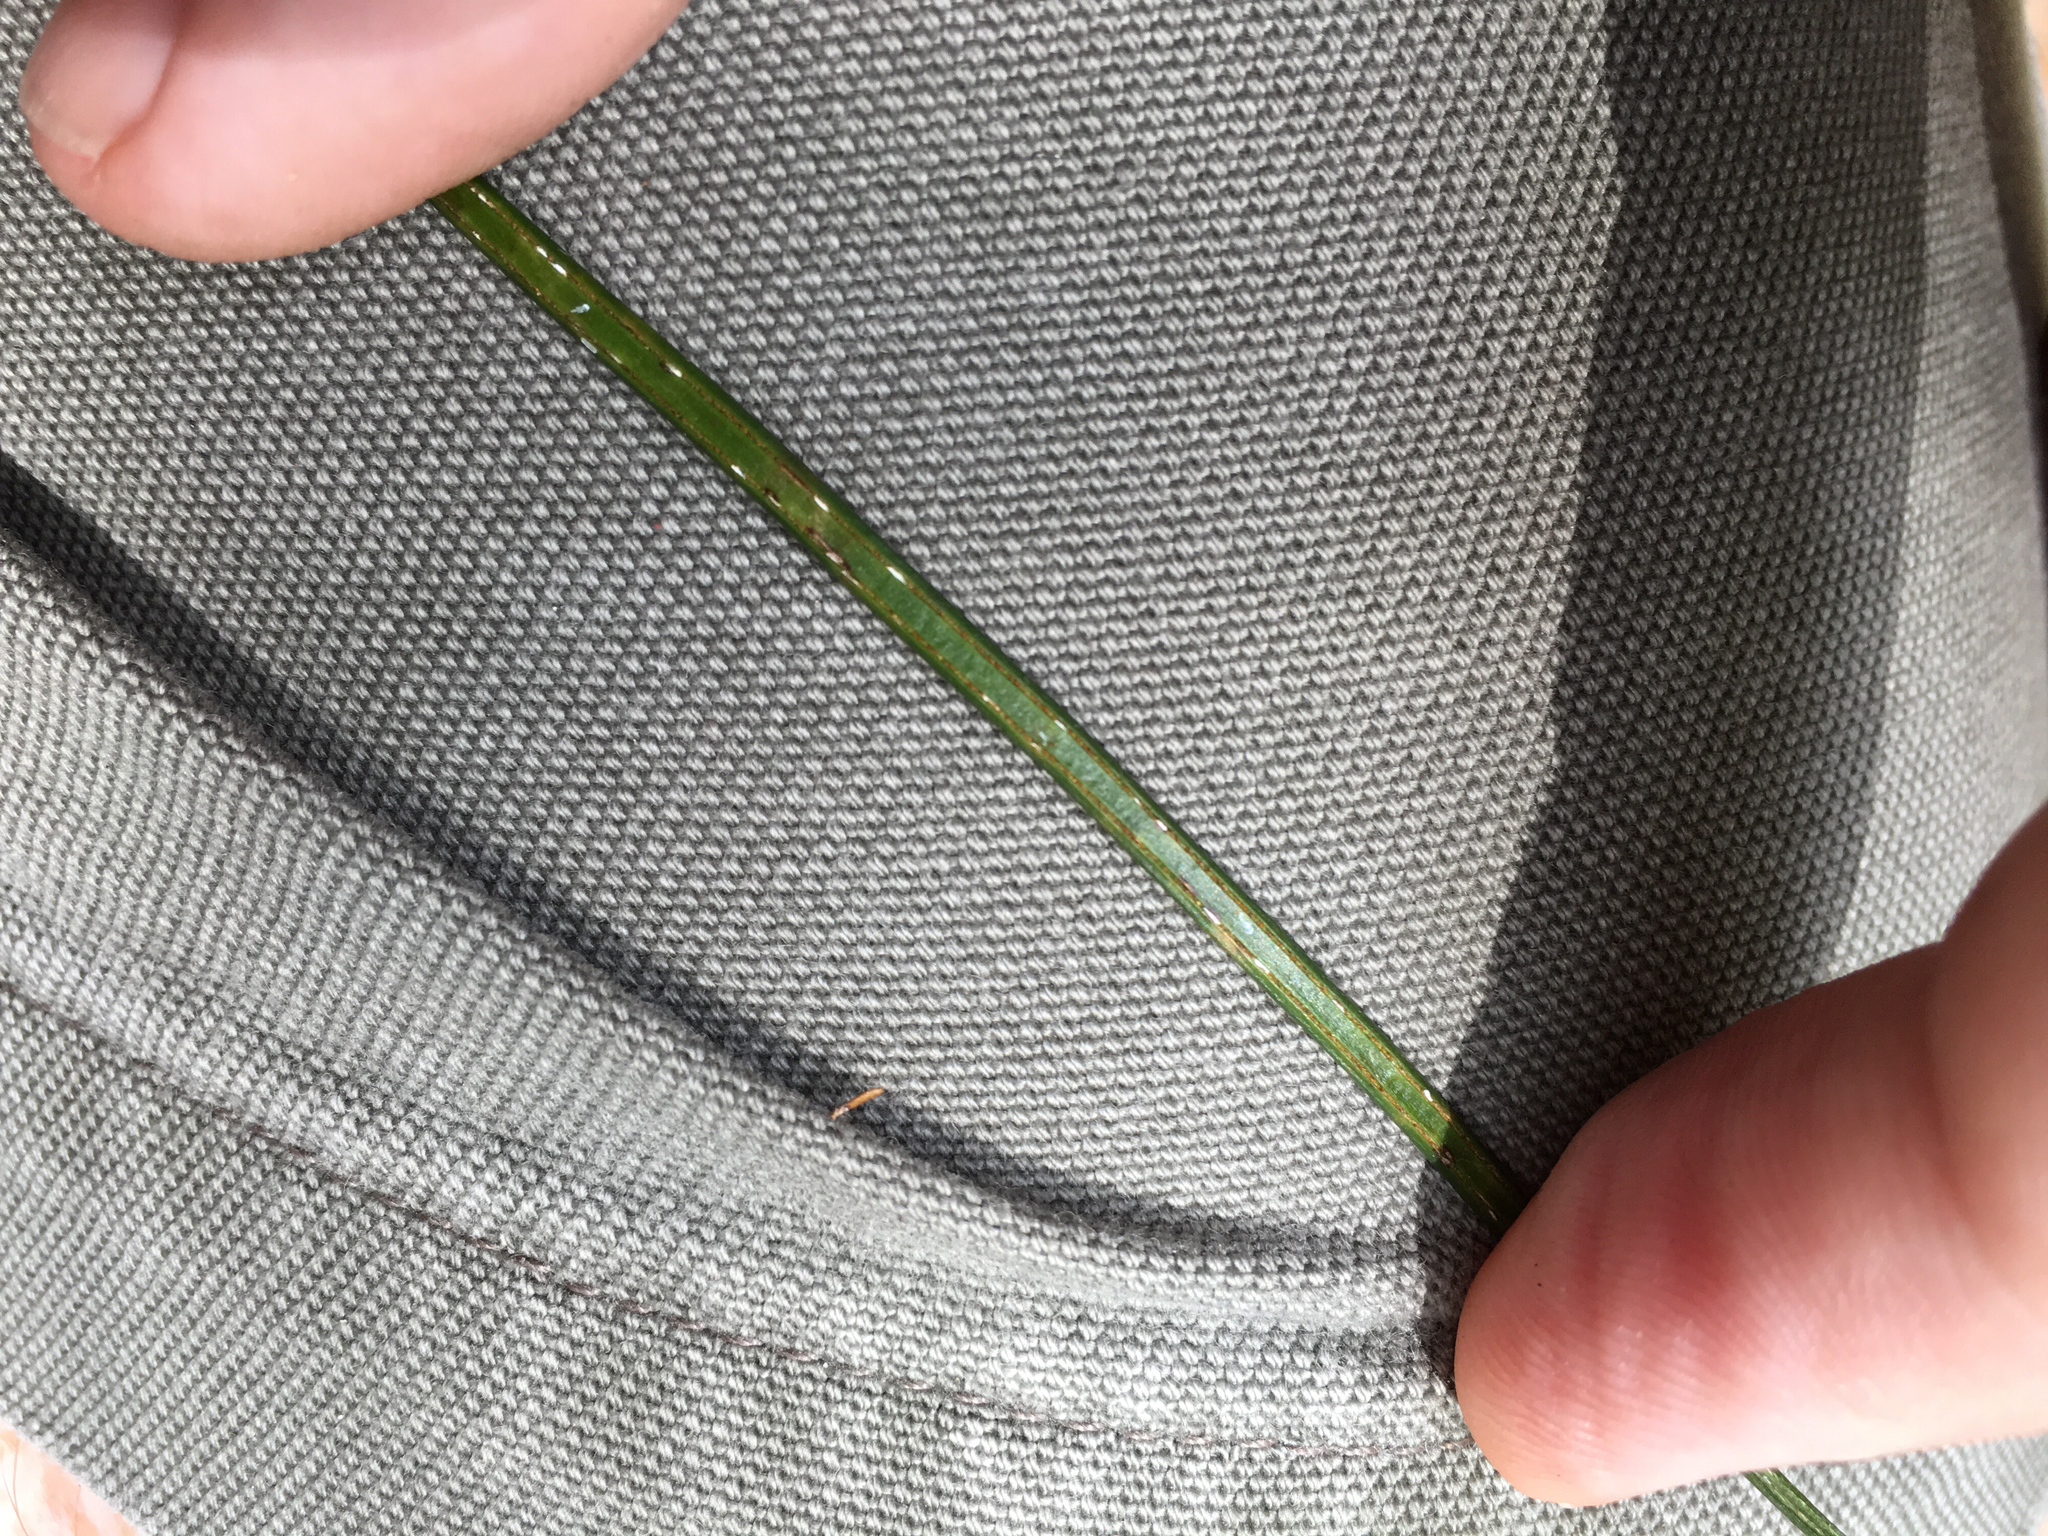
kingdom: Plantae
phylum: Tracheophyta
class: Polypodiopsida
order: Polypodiales
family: Pteridaceae
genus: Vittaria
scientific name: Vittaria lineata
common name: Shoestring fern
